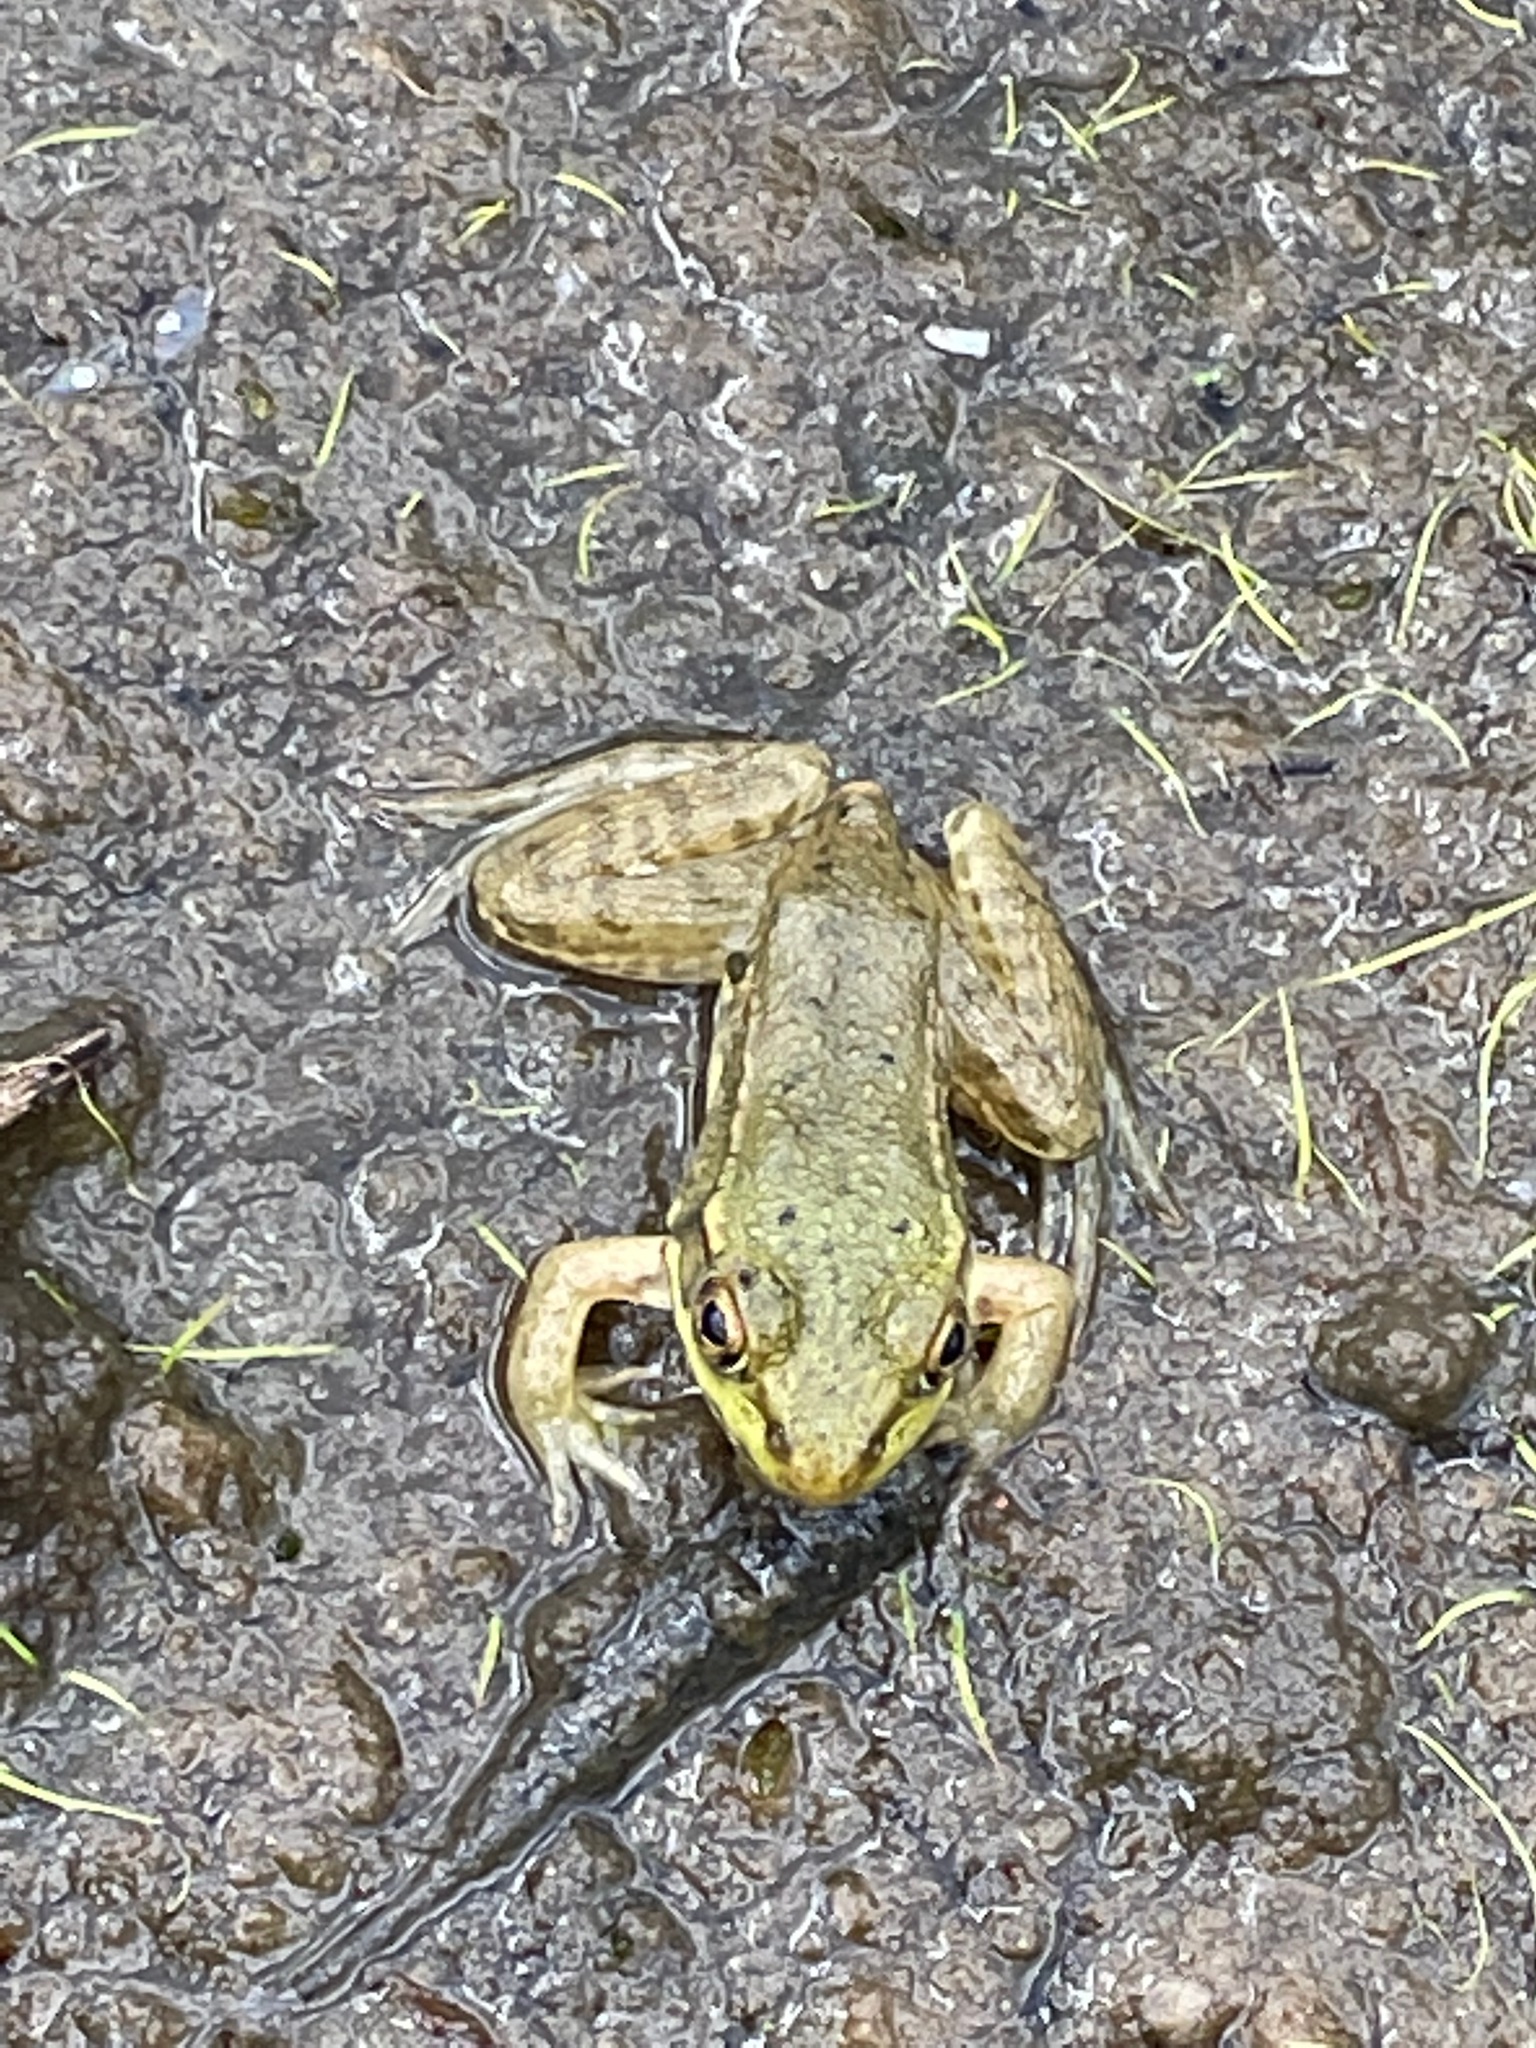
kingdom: Animalia
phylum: Chordata
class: Amphibia
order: Anura
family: Ranidae
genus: Lithobates
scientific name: Lithobates clamitans
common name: Green frog
